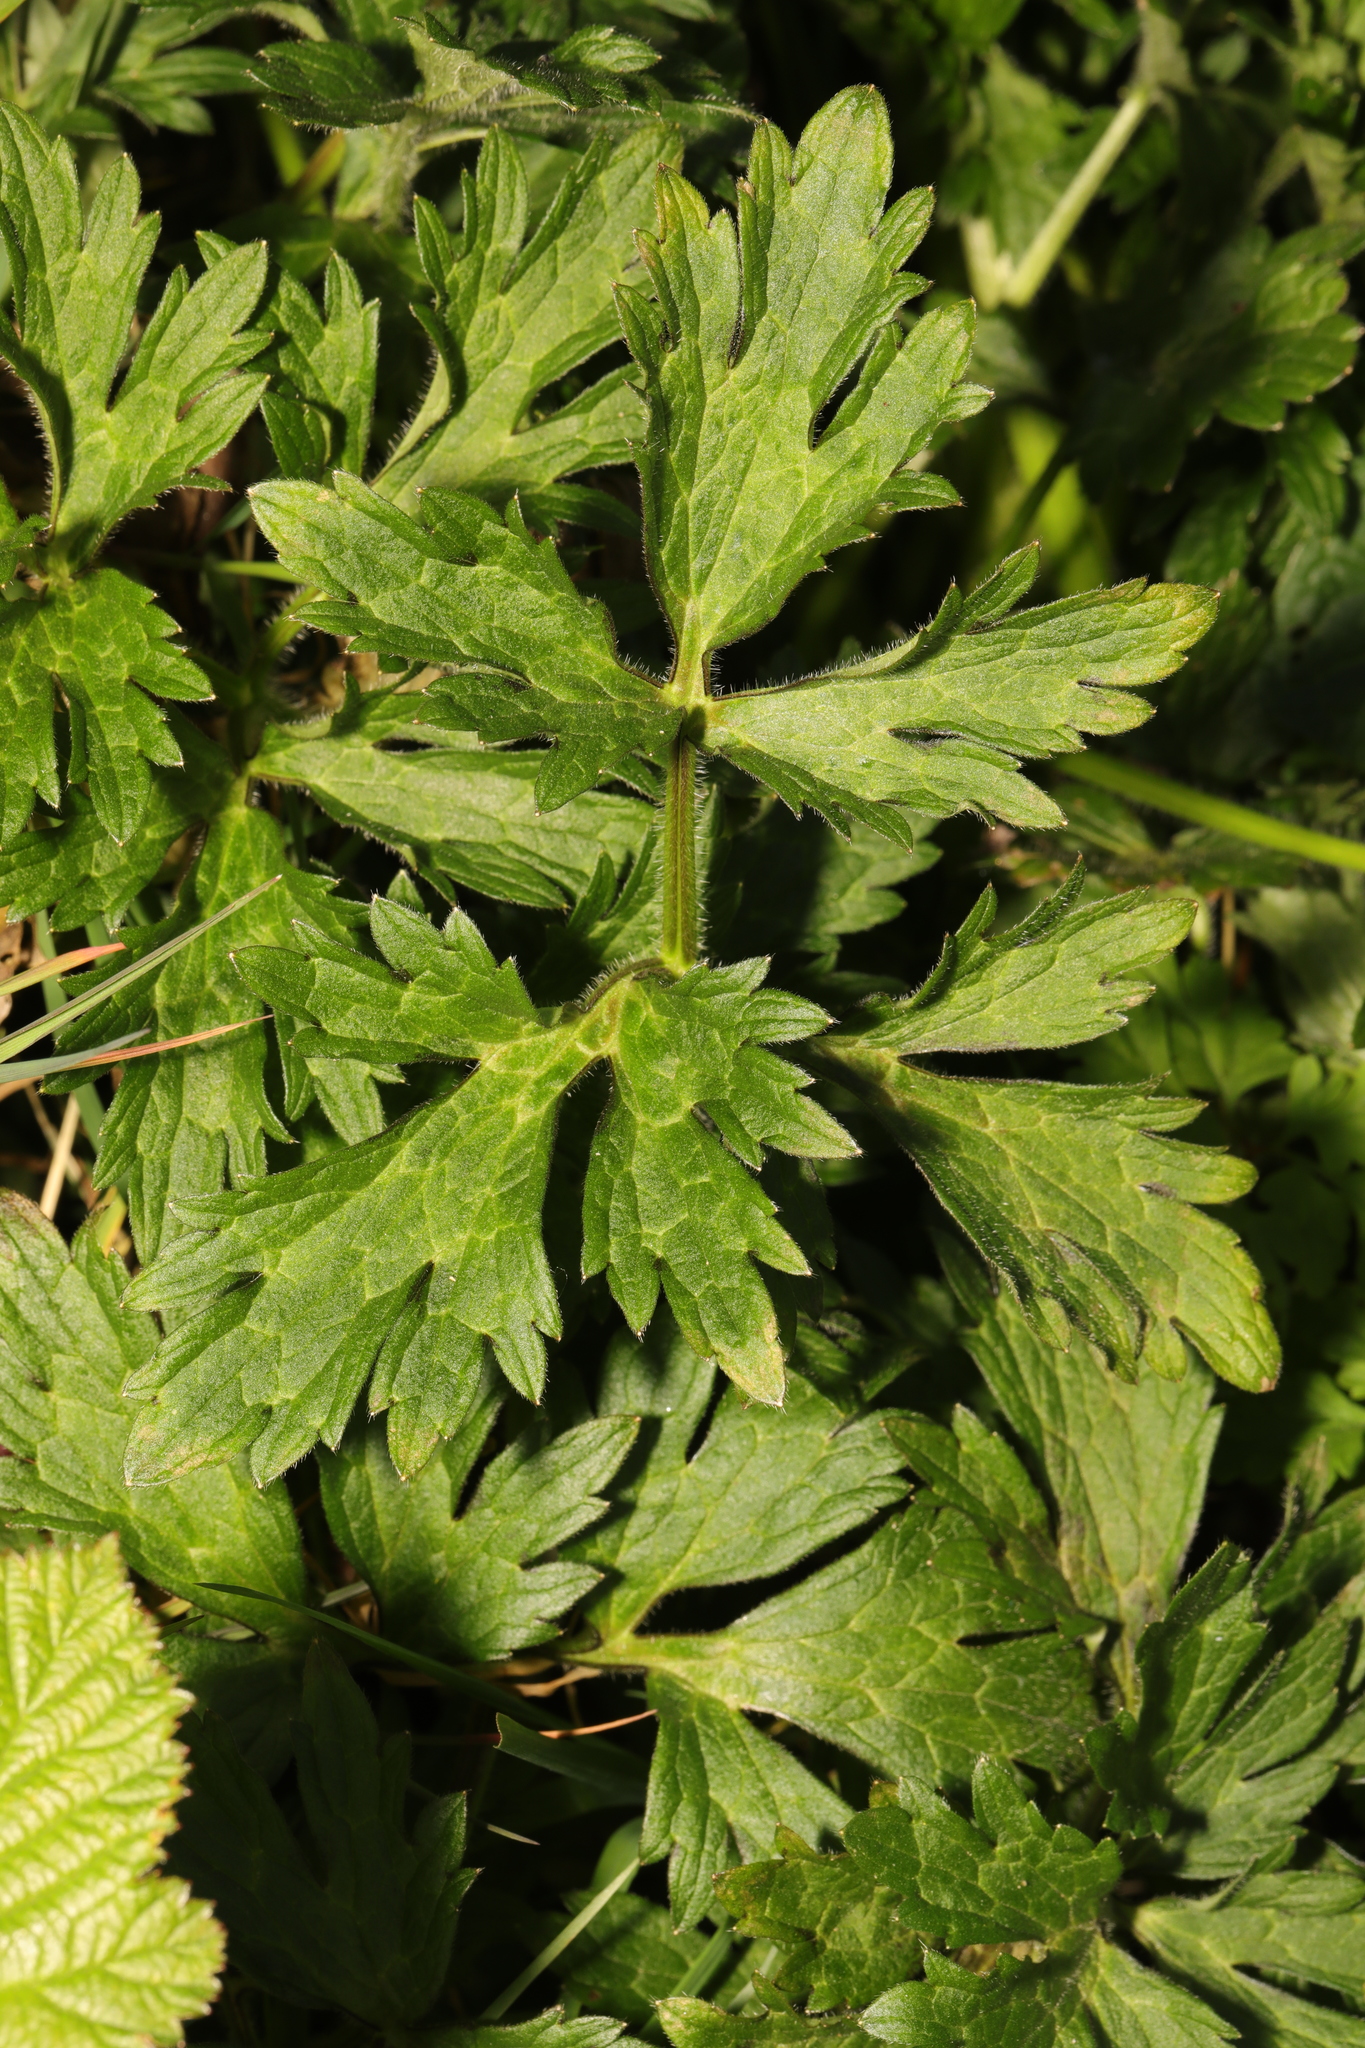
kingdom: Plantae
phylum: Tracheophyta
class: Magnoliopsida
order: Ranunculales
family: Ranunculaceae
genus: Ranunculus
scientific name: Ranunculus repens
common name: Creeping buttercup
